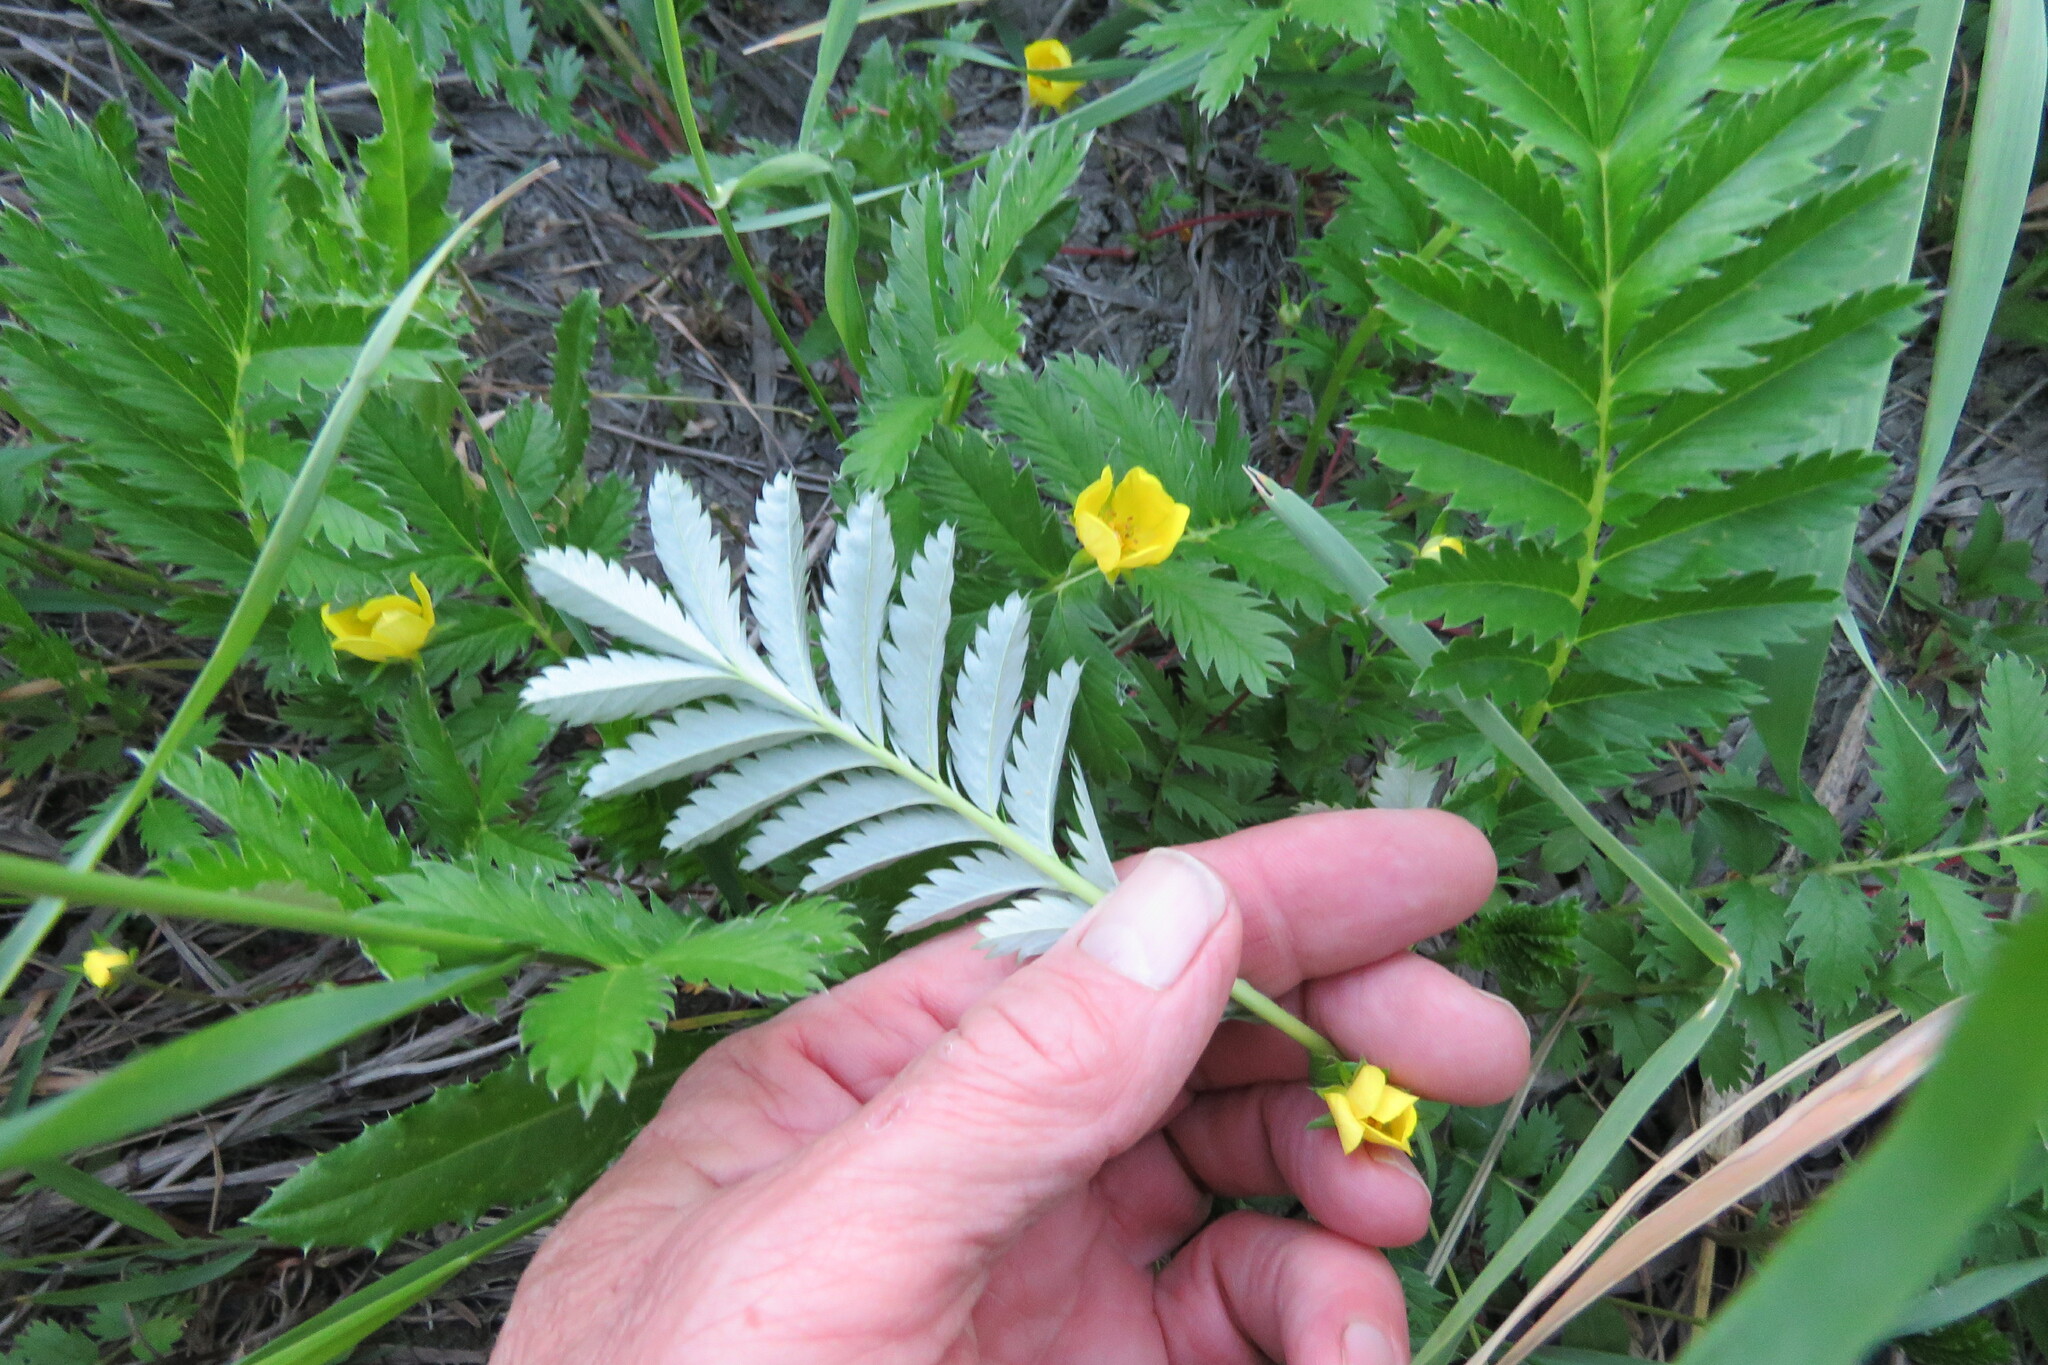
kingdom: Plantae
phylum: Tracheophyta
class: Magnoliopsida
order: Rosales
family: Rosaceae
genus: Argentina
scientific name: Argentina anserina
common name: Common silverweed
